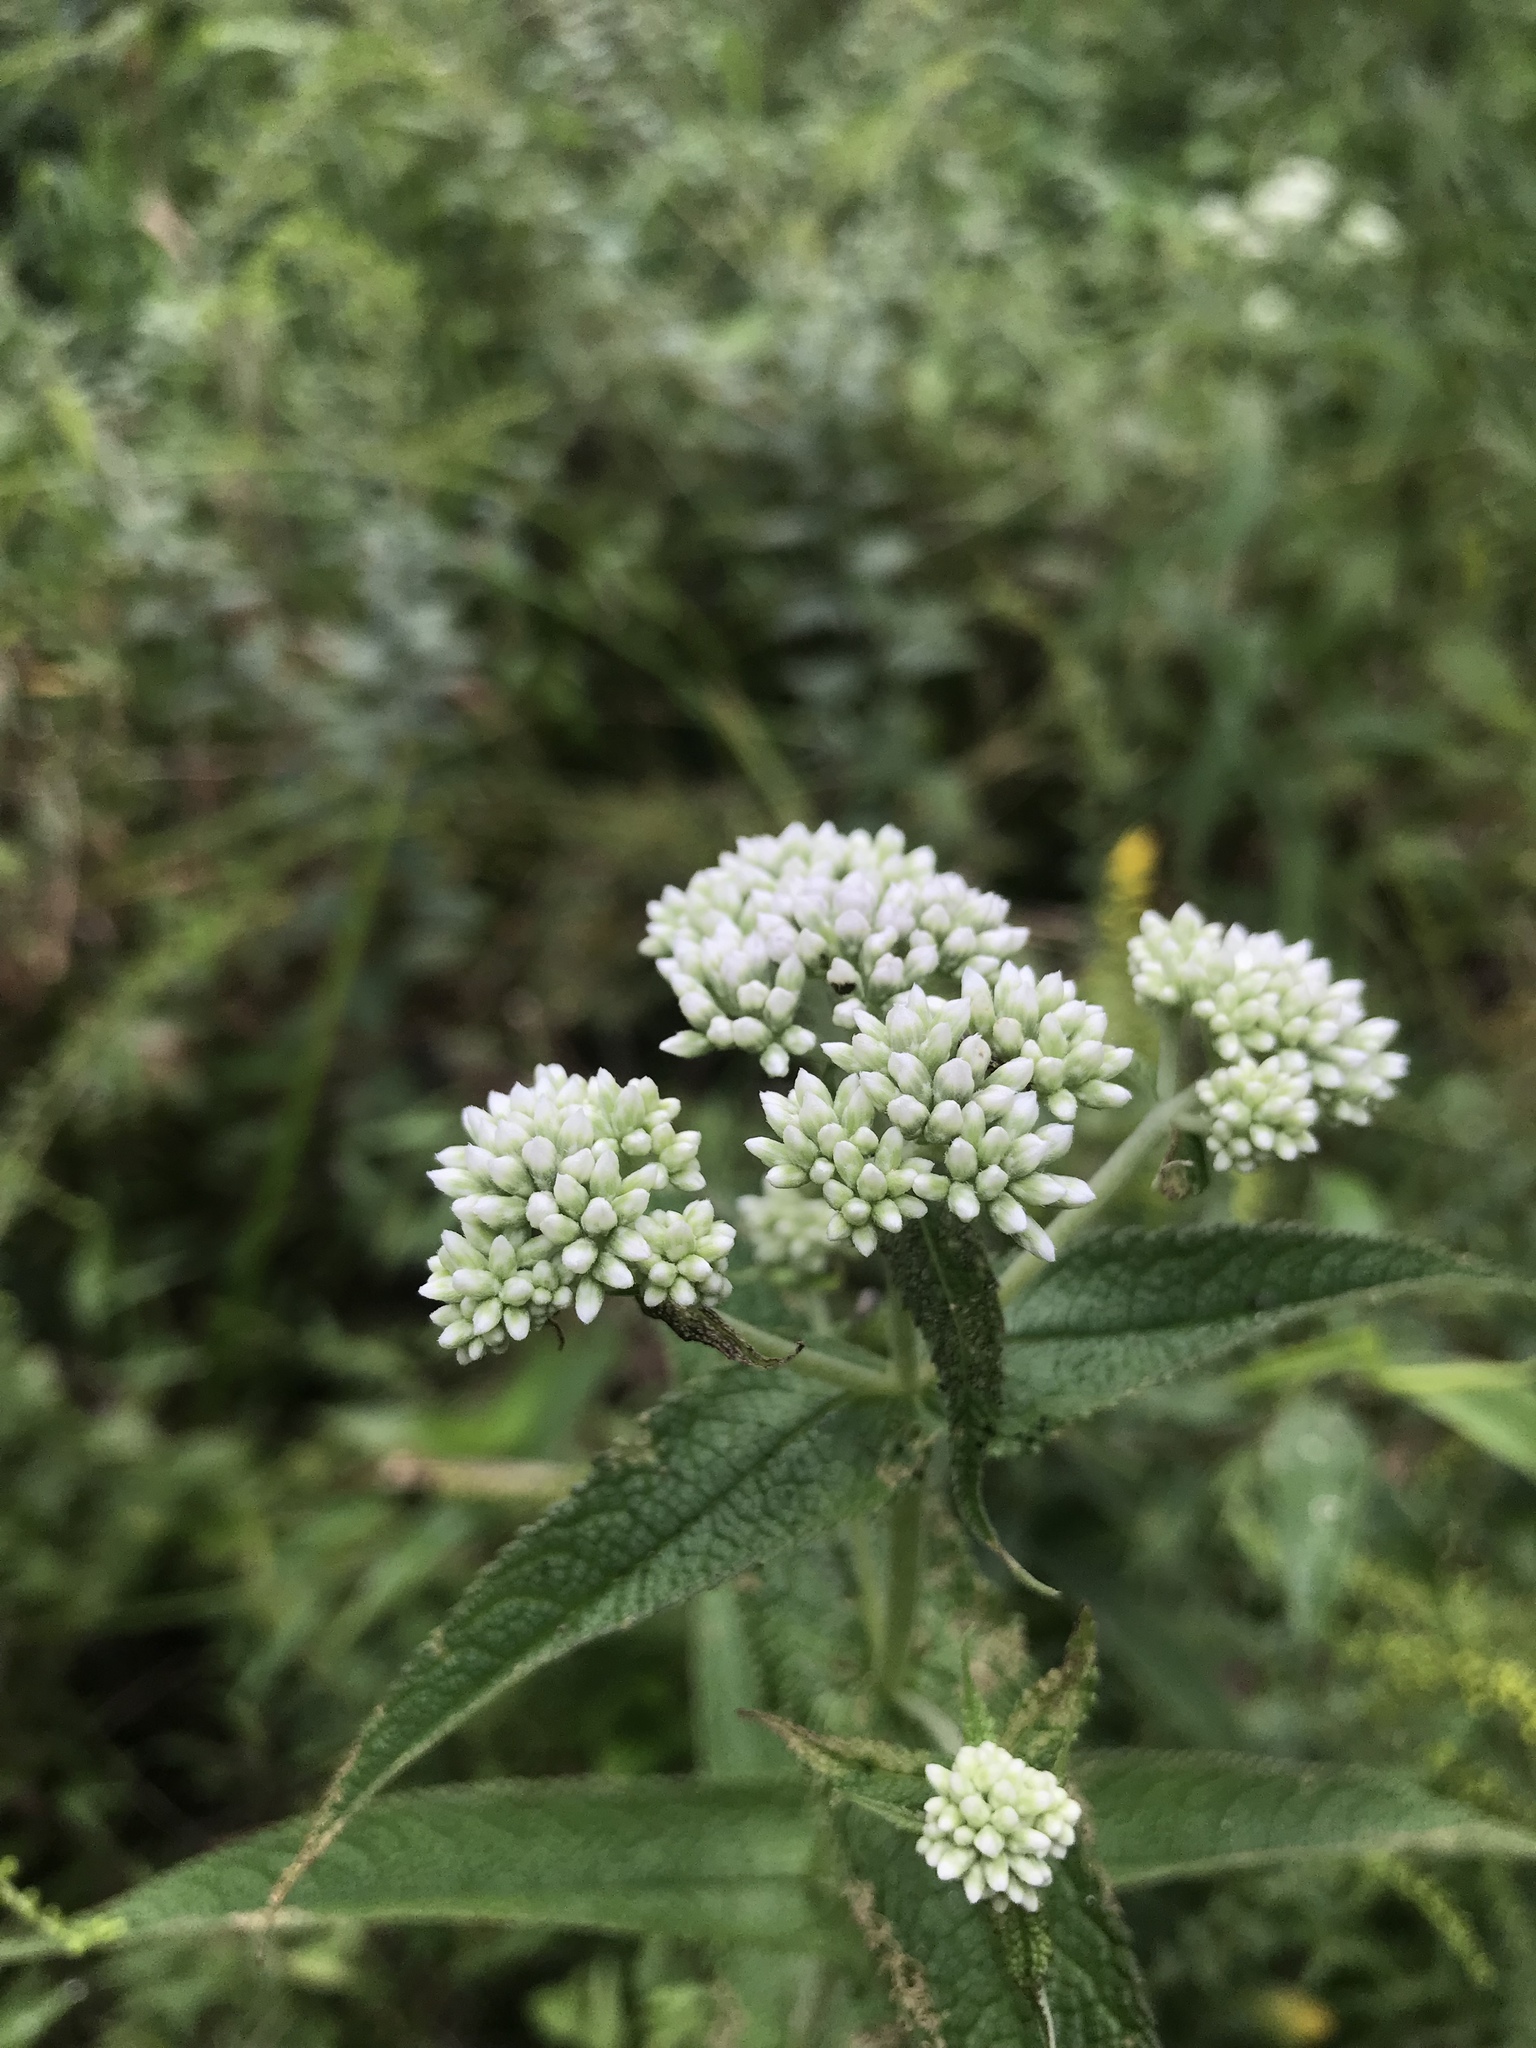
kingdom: Plantae
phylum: Tracheophyta
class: Magnoliopsida
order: Asterales
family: Asteraceae
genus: Eupatorium
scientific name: Eupatorium perfoliatum
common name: Boneset
